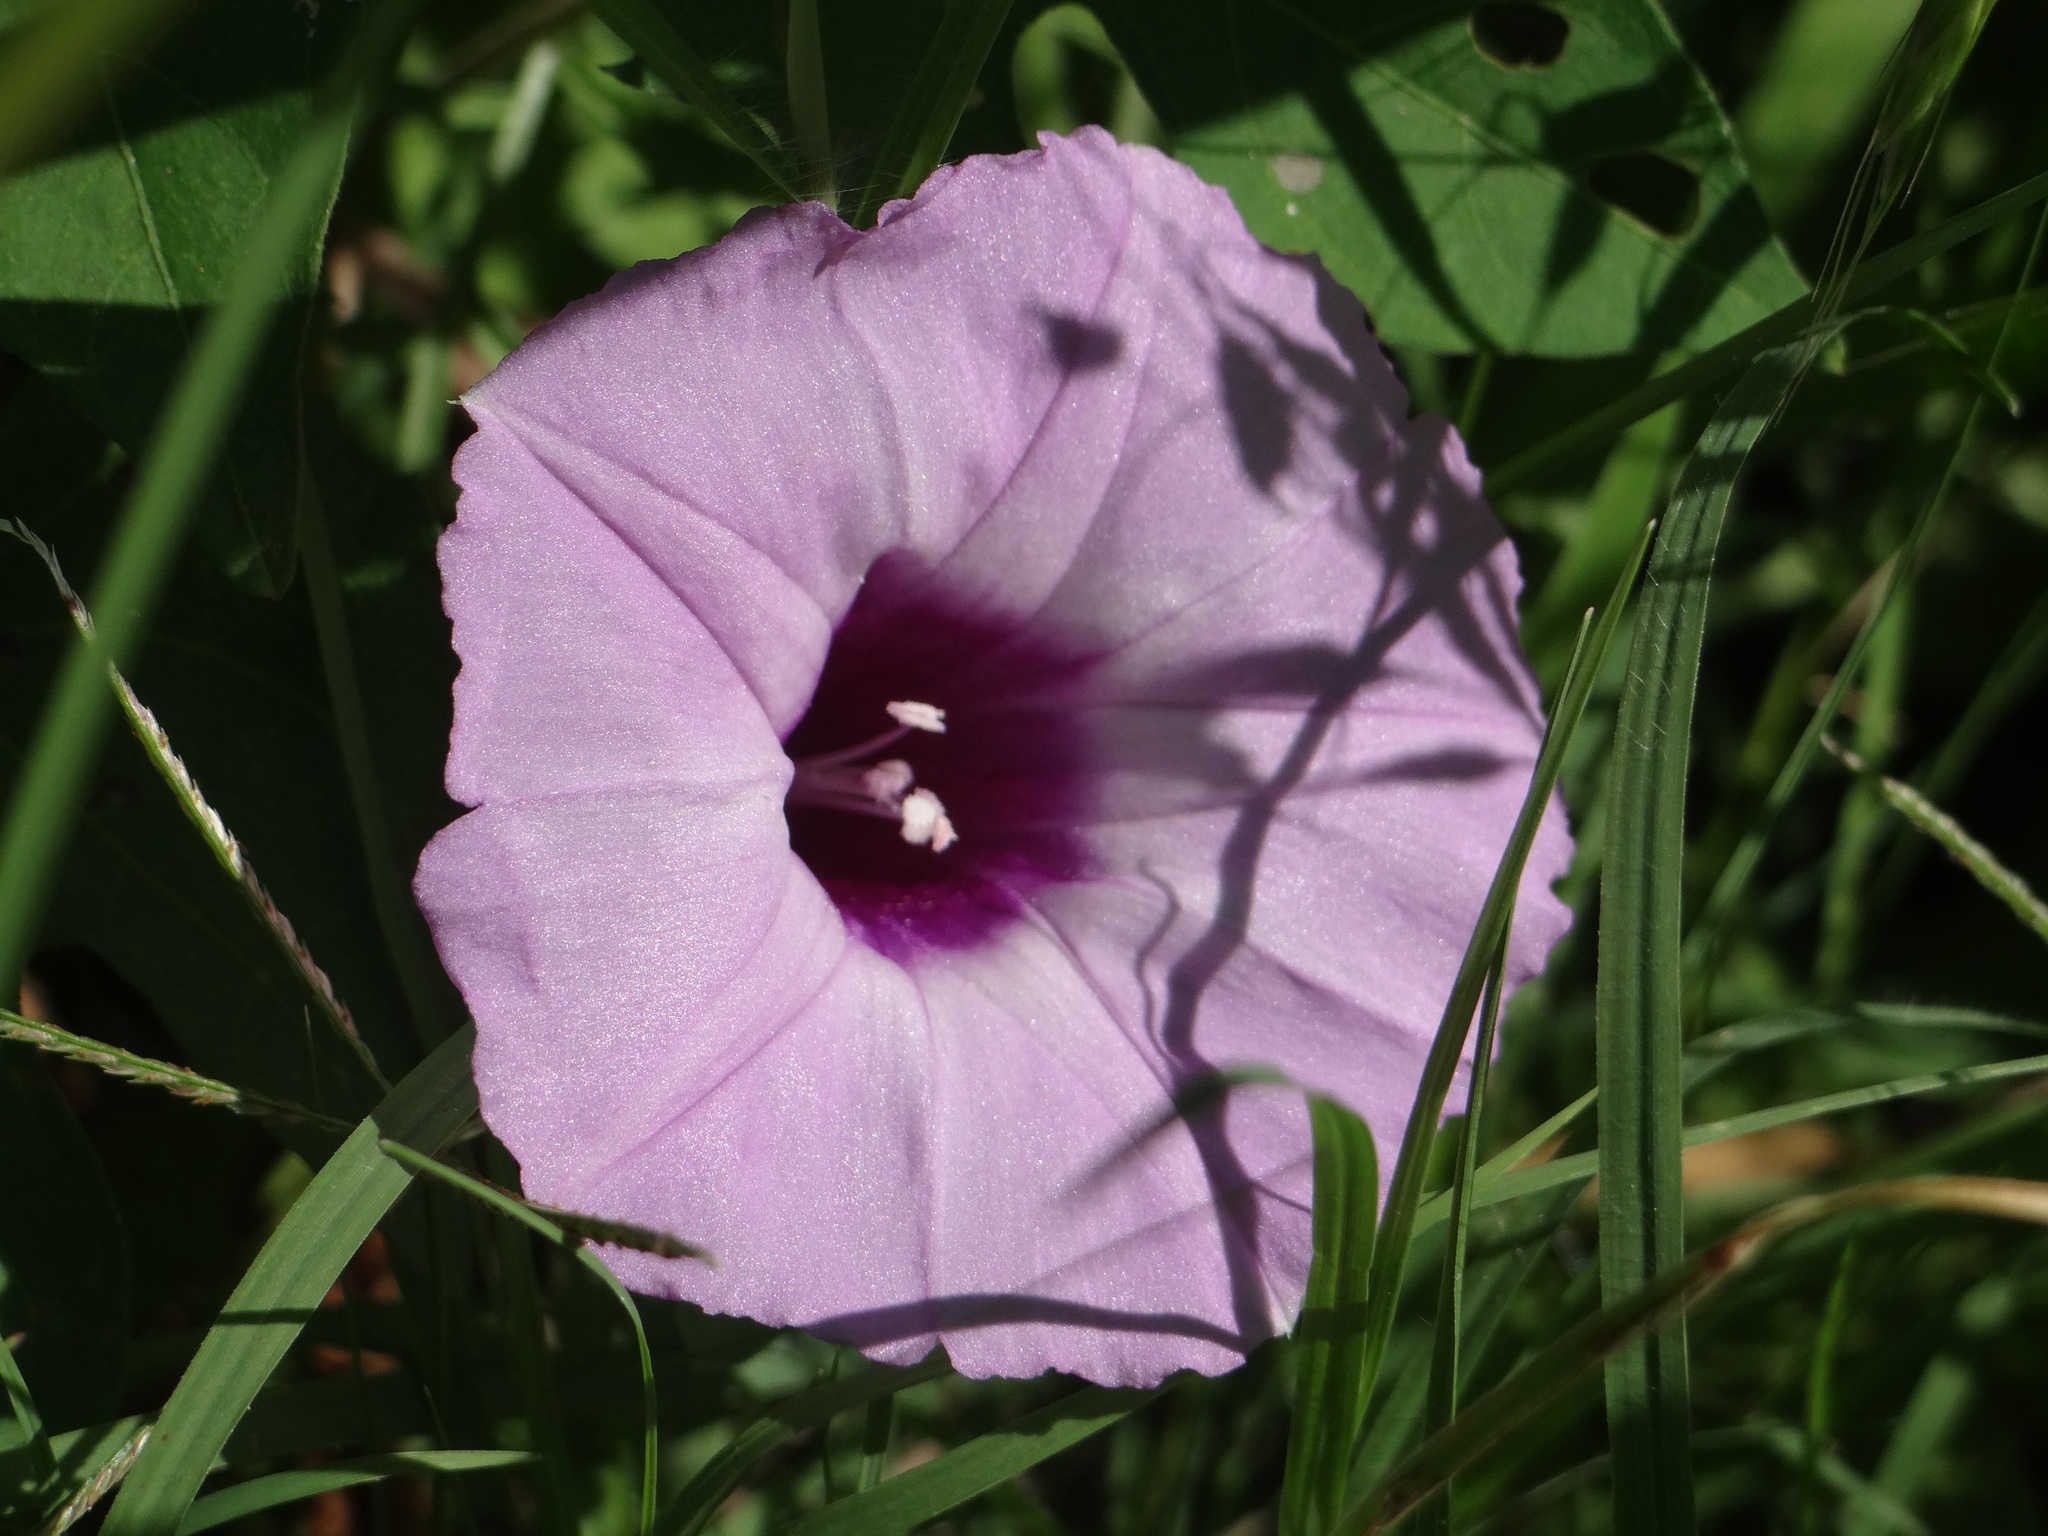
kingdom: Plantae
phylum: Tracheophyta
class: Magnoliopsida
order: Solanales
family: Convolvulaceae
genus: Ipomoea
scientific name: Ipomoea cordatotriloba
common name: Cotton morning glory
